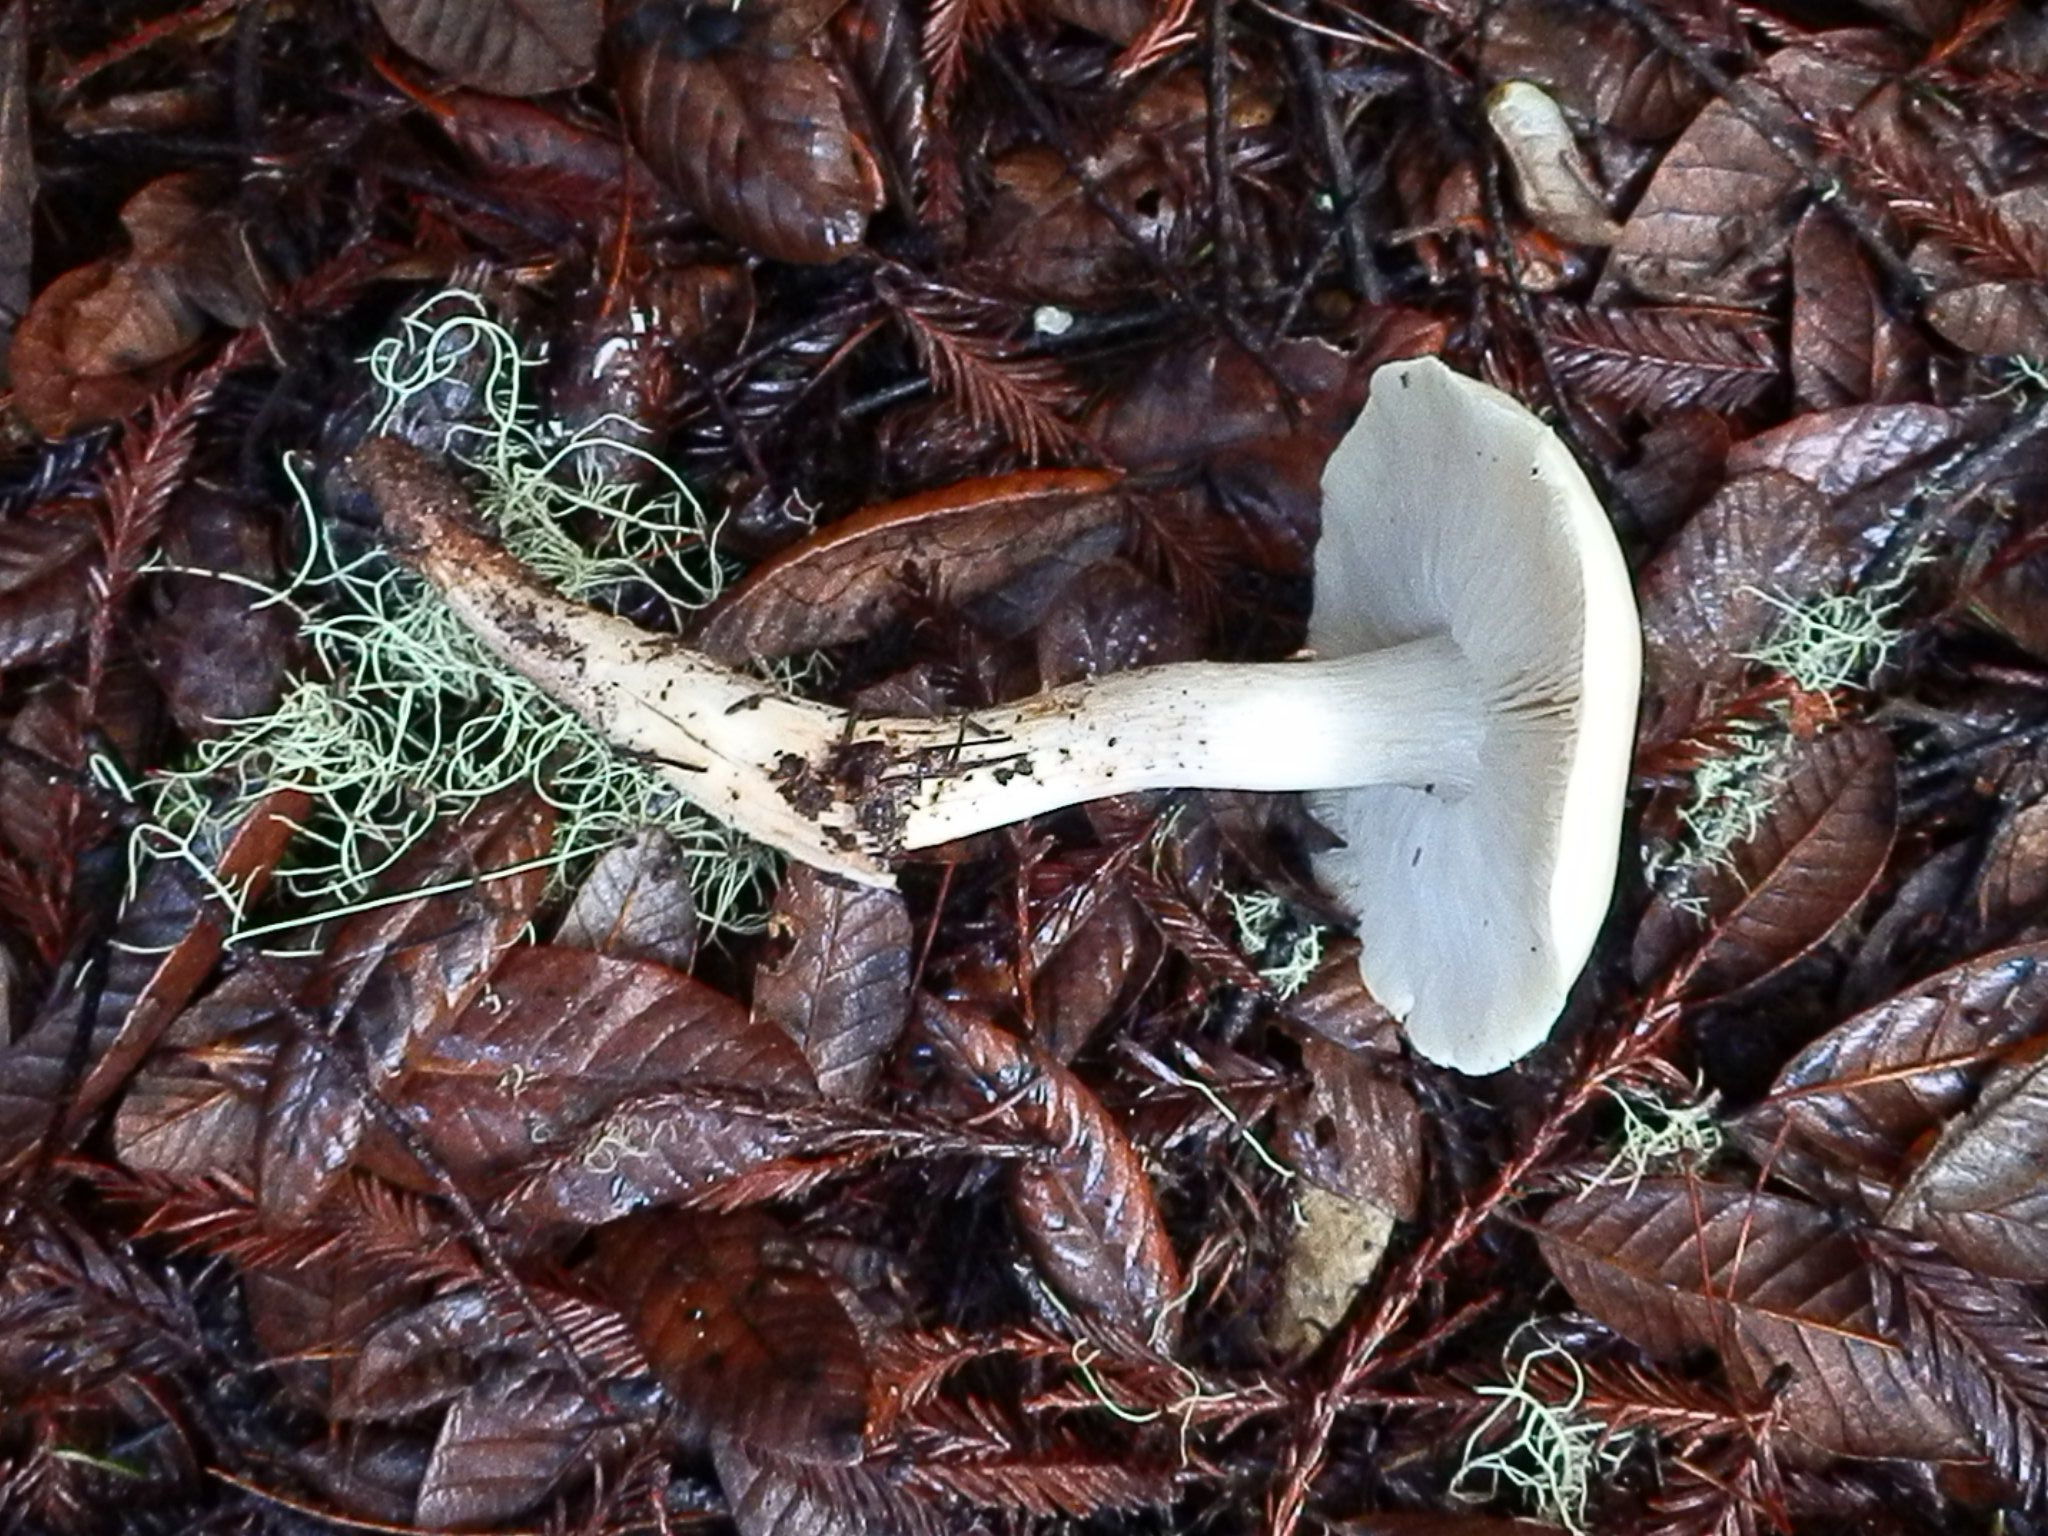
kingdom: Fungi
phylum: Basidiomycota
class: Agaricomycetes
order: Agaricales
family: Tricholomataceae
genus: Tricholoma
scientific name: Tricholoma saponaceum
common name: Soapy trich
